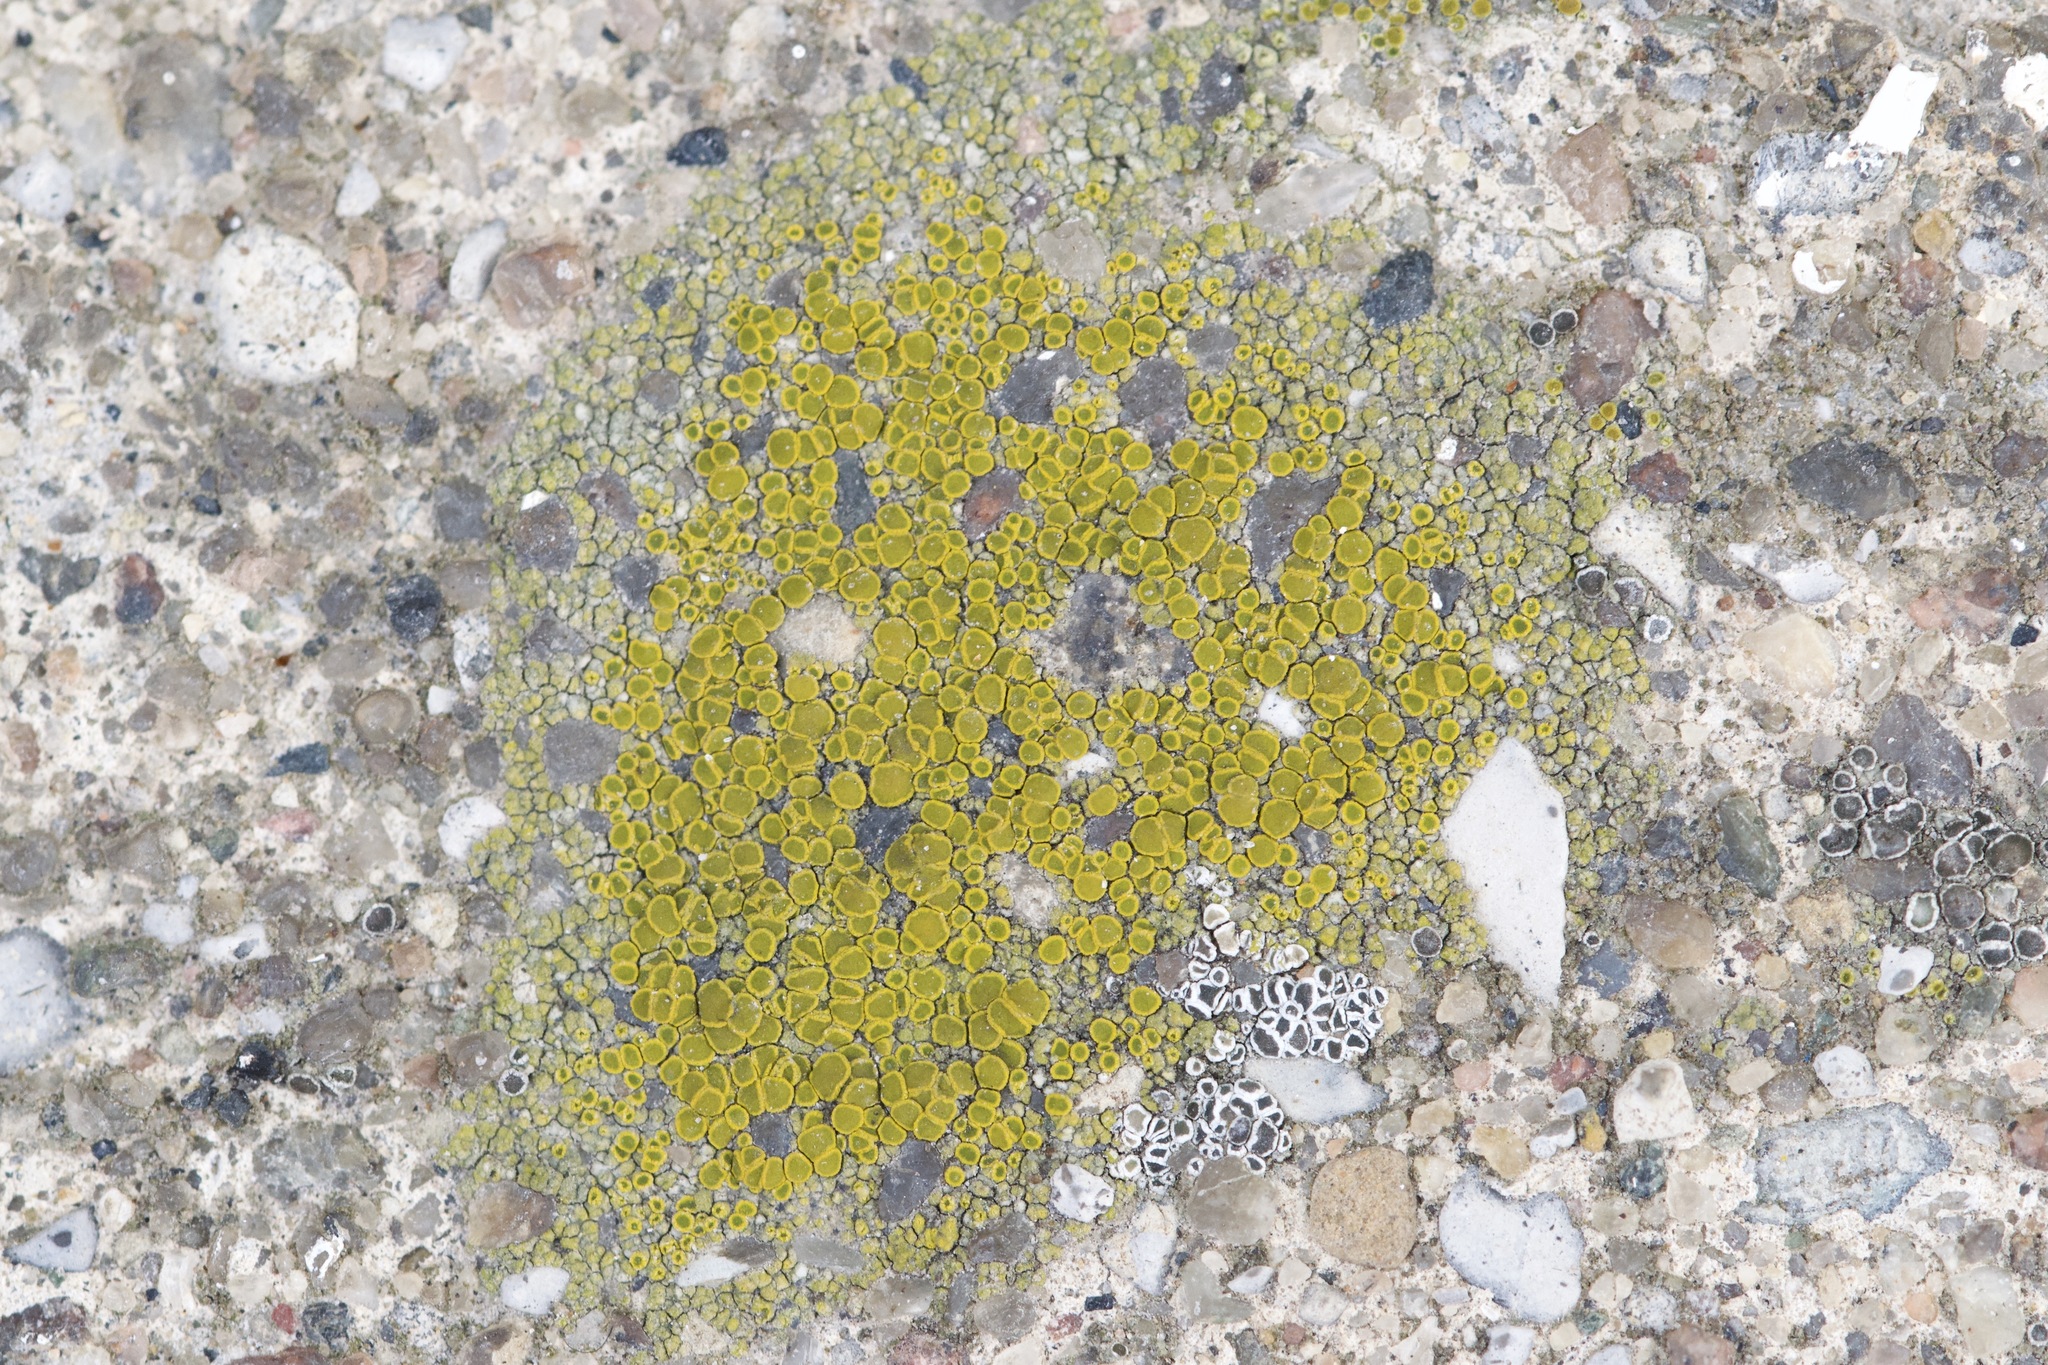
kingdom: Fungi
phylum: Ascomycota
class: Candelariomycetes
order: Candelariales
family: Candelariaceae
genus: Candelariella
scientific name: Candelariella aurella
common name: Hidden goldspeck lichen
